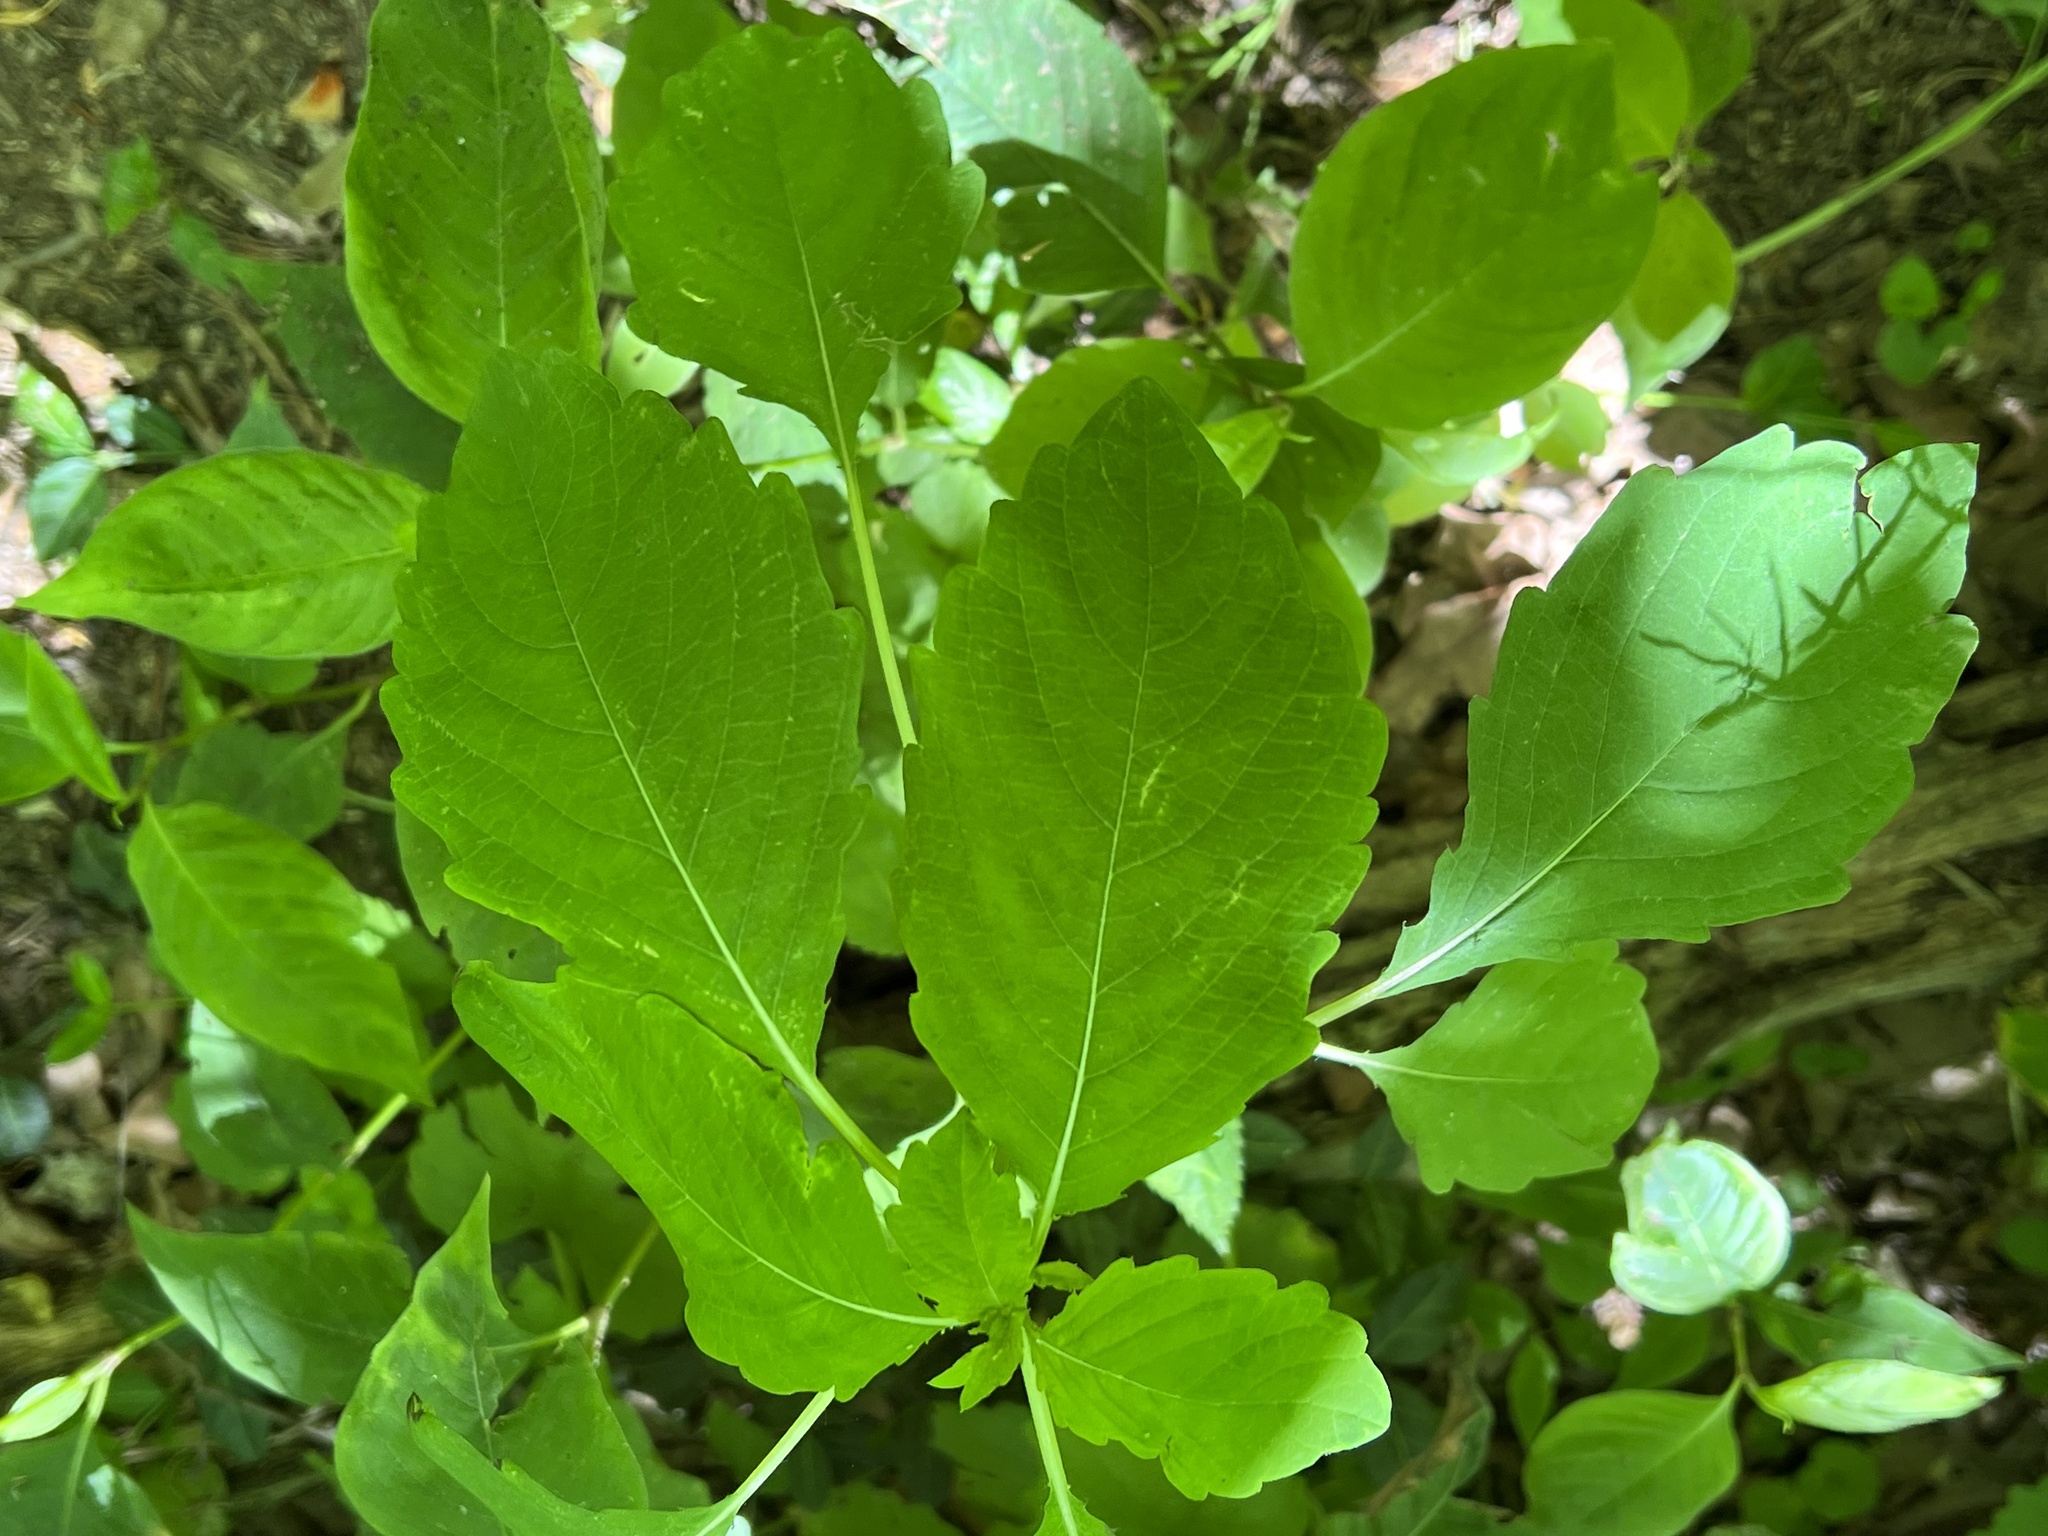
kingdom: Plantae
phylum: Tracheophyta
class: Magnoliopsida
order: Ericales
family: Balsaminaceae
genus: Impatiens
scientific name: Impatiens capensis
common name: Orange balsam
